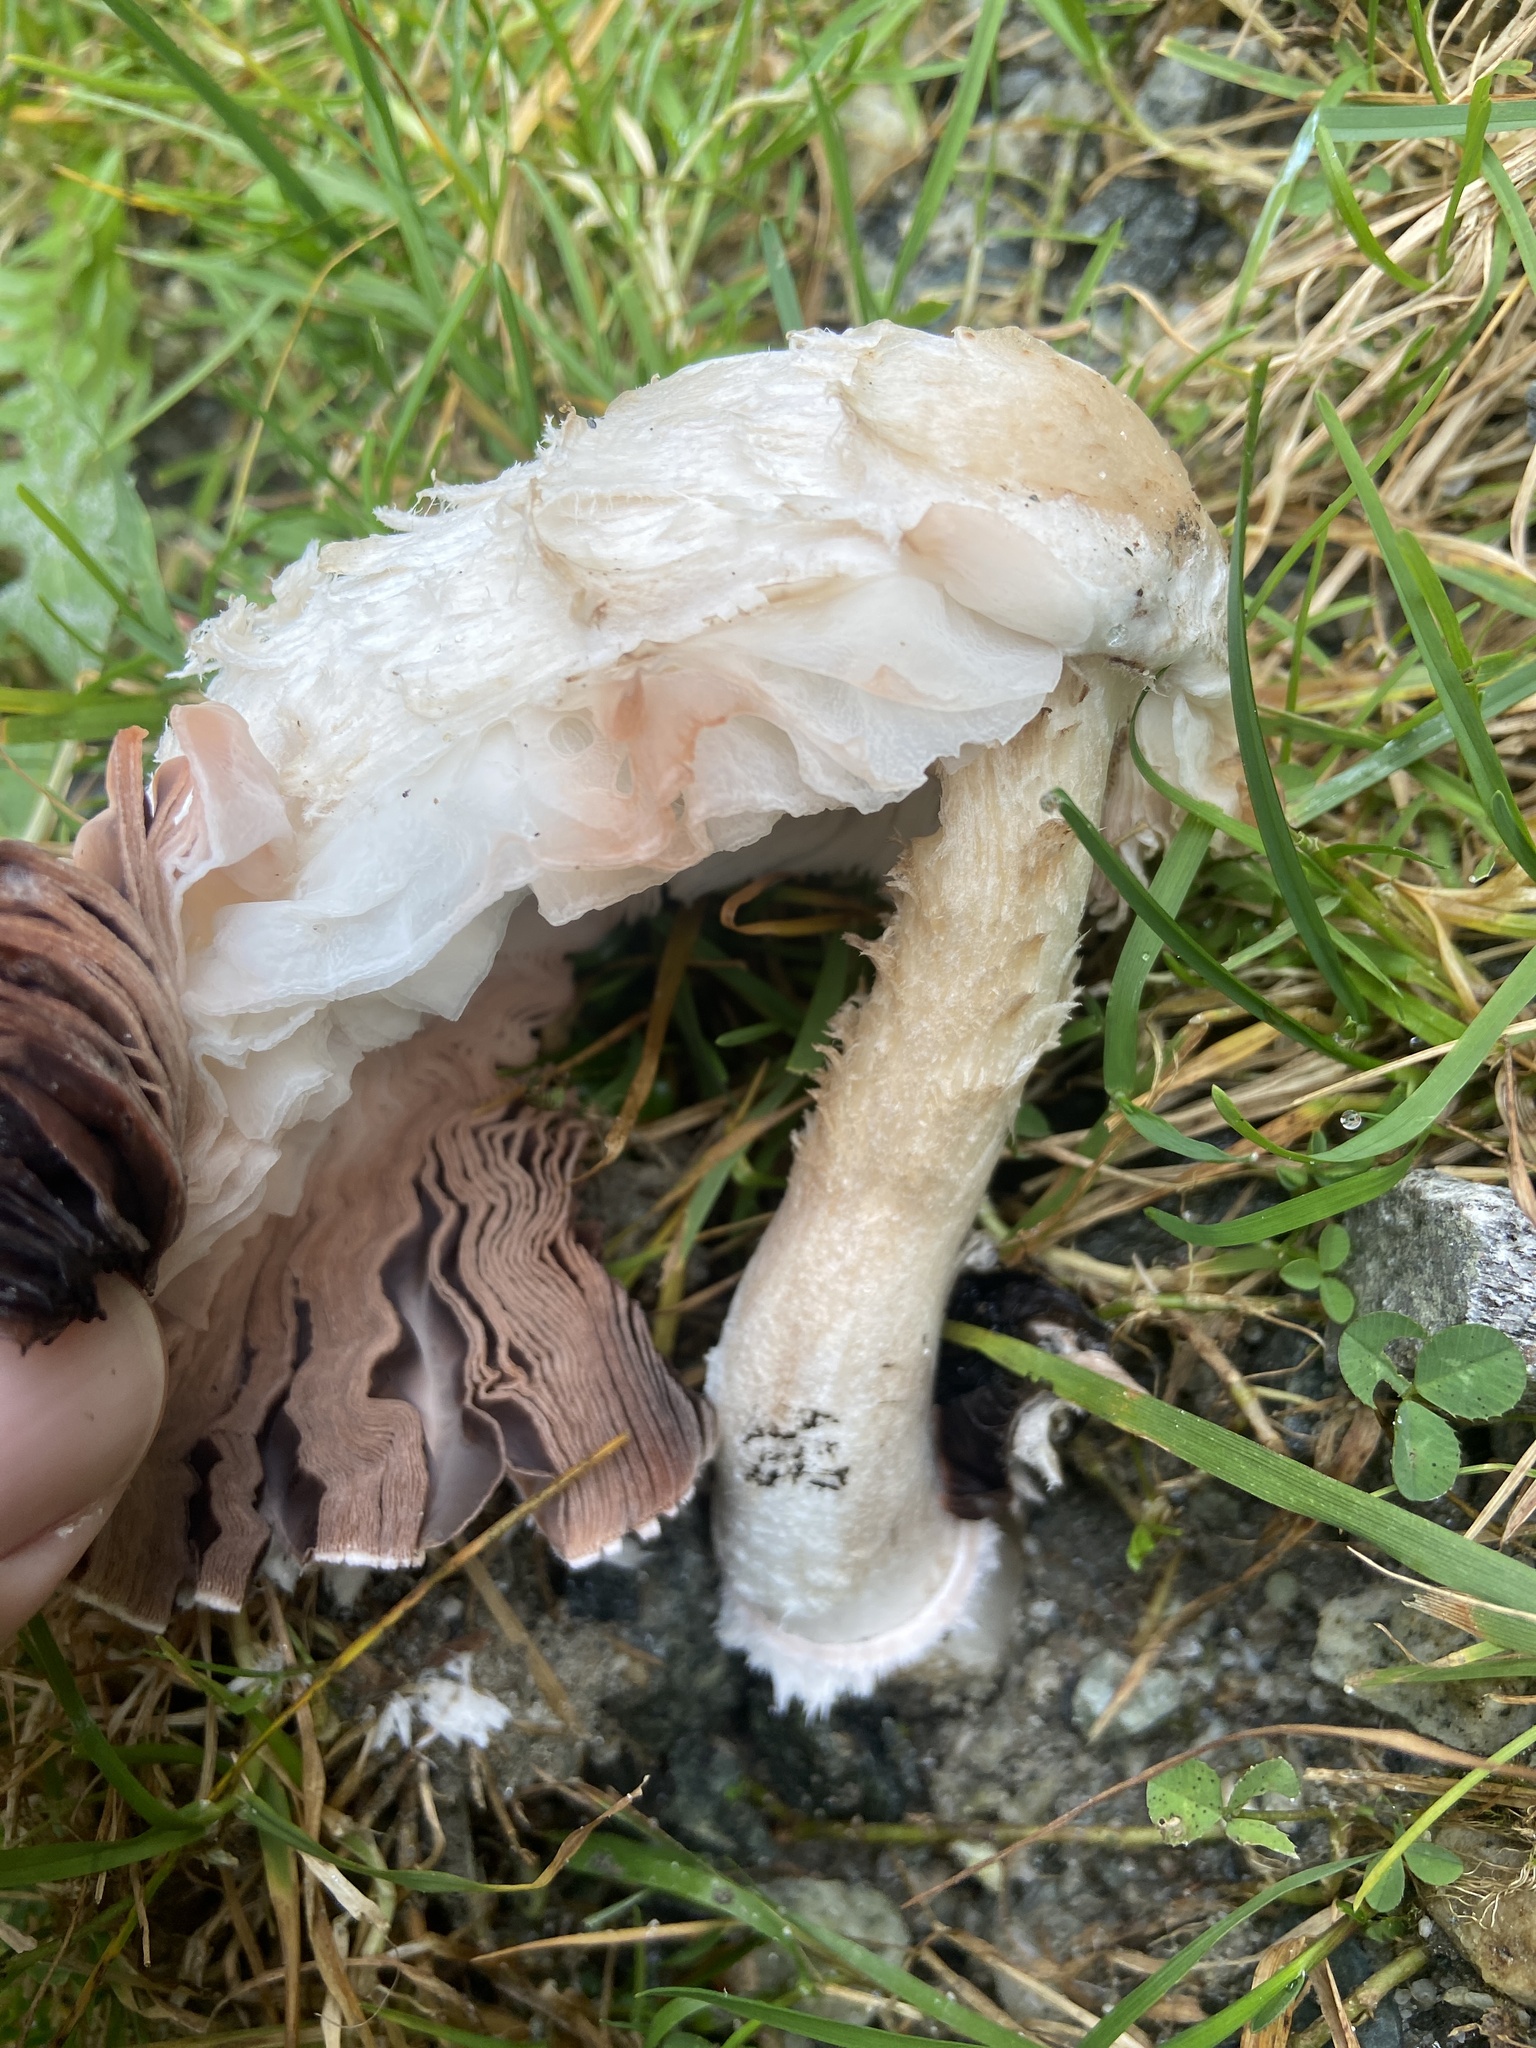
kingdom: Fungi
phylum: Basidiomycota
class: Agaricomycetes
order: Agaricales
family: Agaricaceae
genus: Coprinus
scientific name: Coprinus comatus
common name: Lawyer's wig
